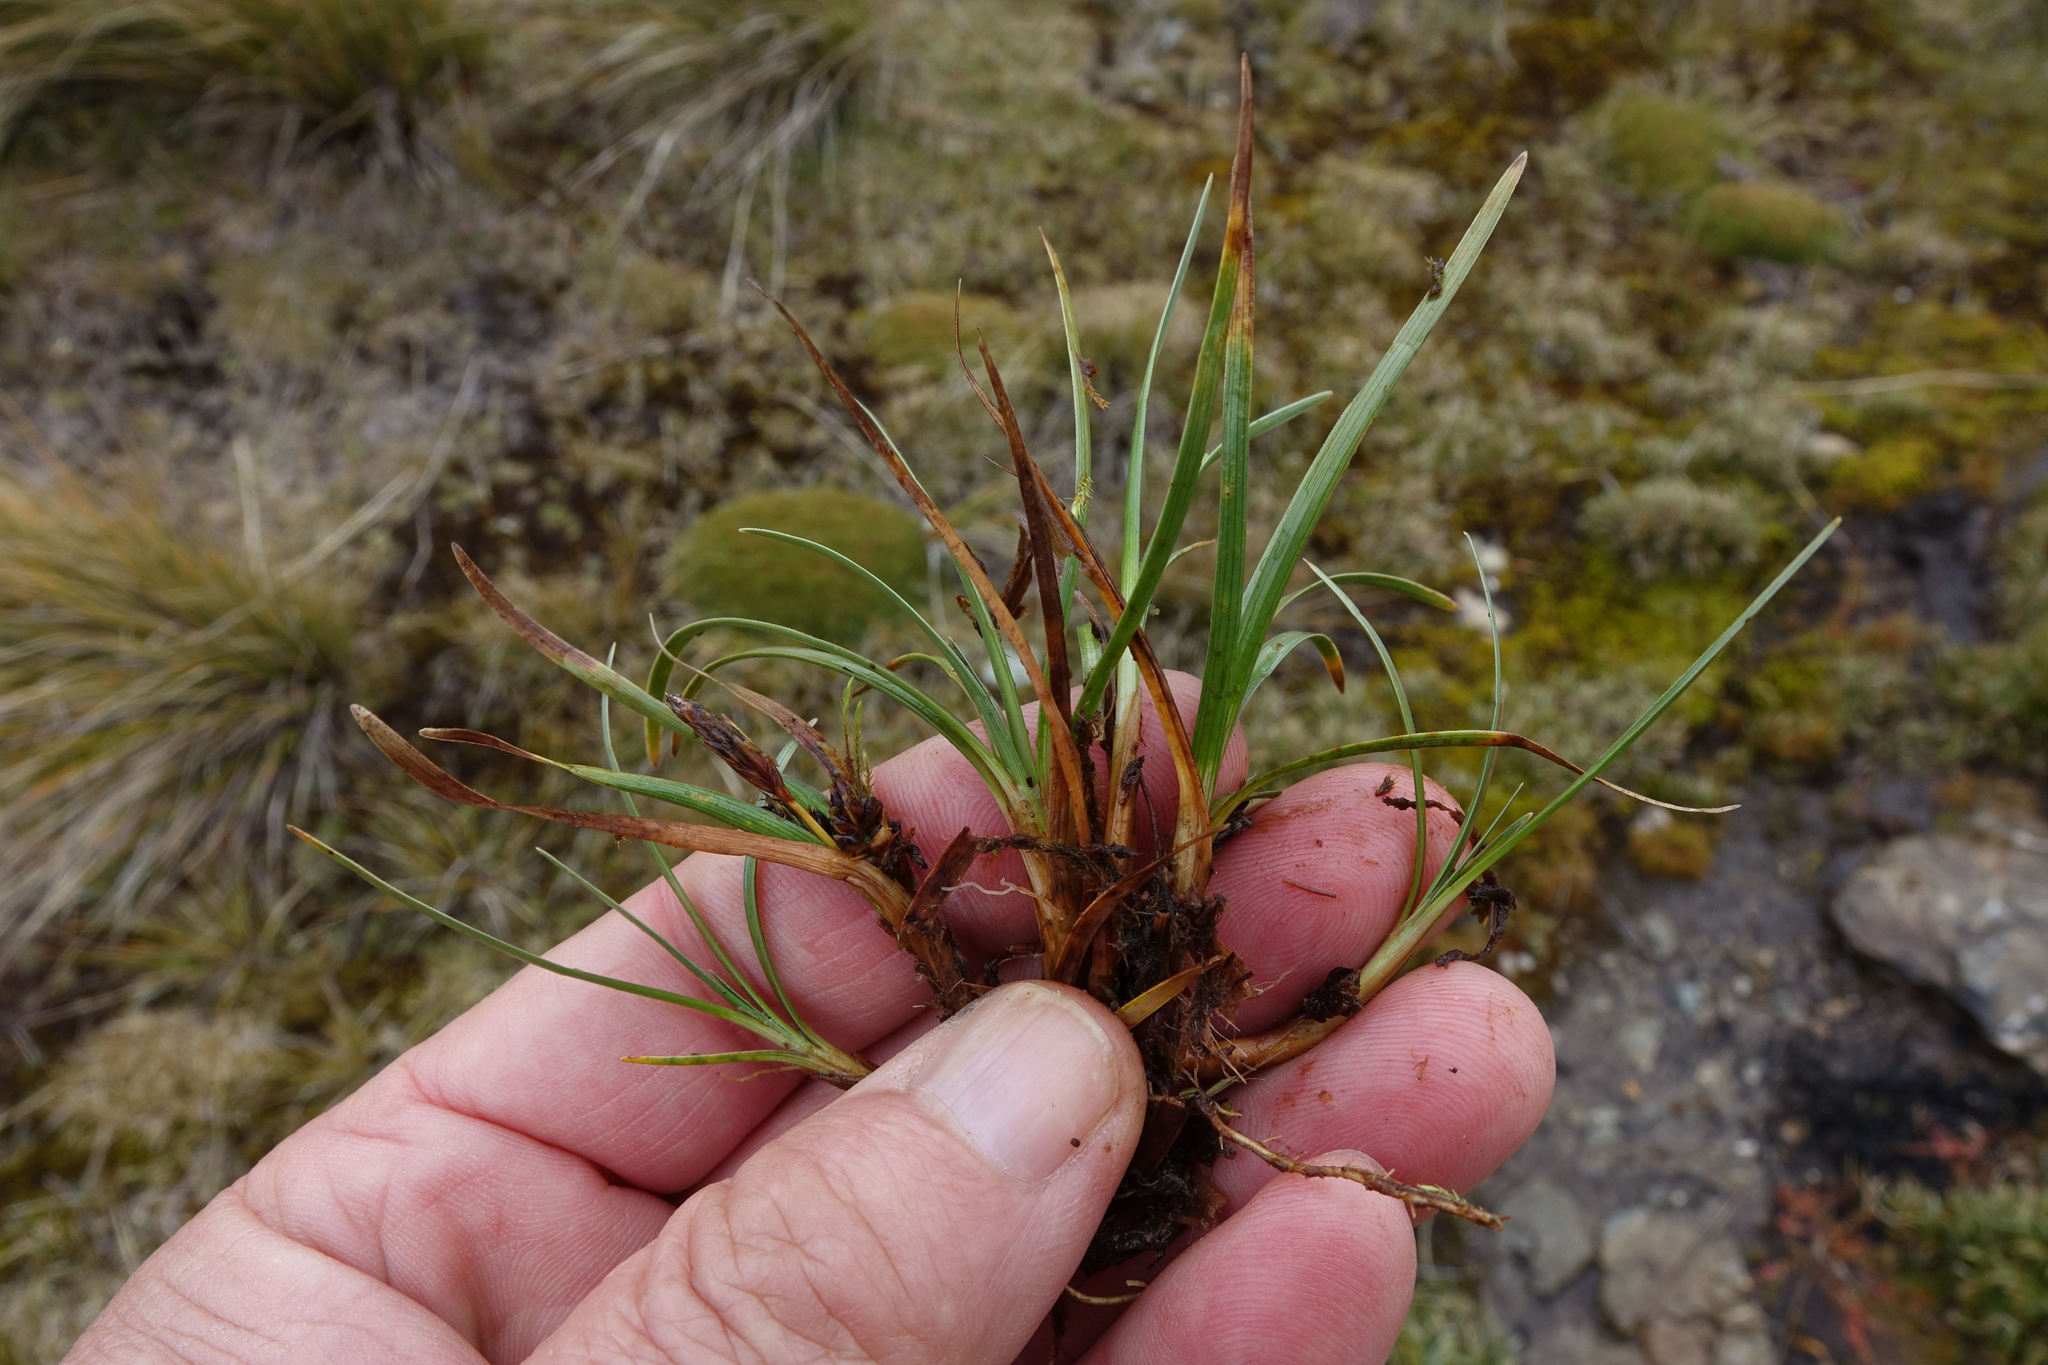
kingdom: Plantae
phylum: Tracheophyta
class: Liliopsida
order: Poales
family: Cyperaceae
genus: Carex
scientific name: Carex hectorii
